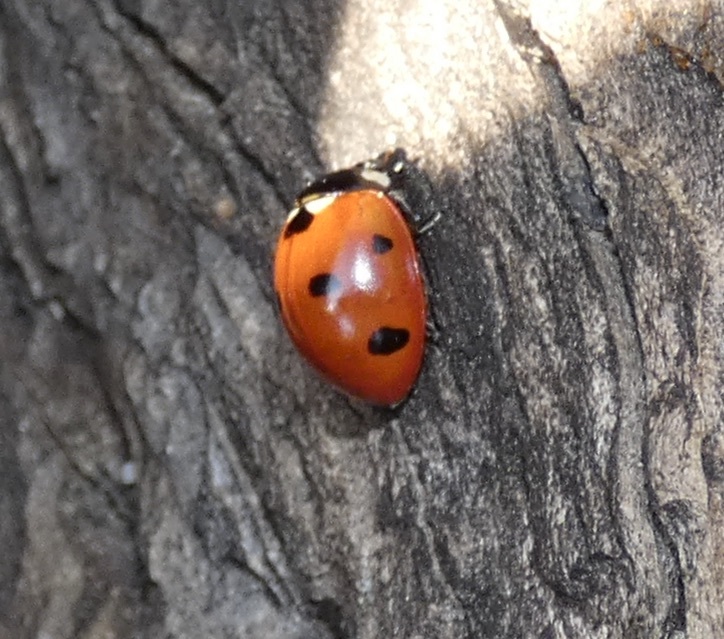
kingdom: Animalia
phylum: Arthropoda
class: Insecta
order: Coleoptera
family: Coccinellidae
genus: Coccinella
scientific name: Coccinella septempunctata
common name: Sevenspotted lady beetle
